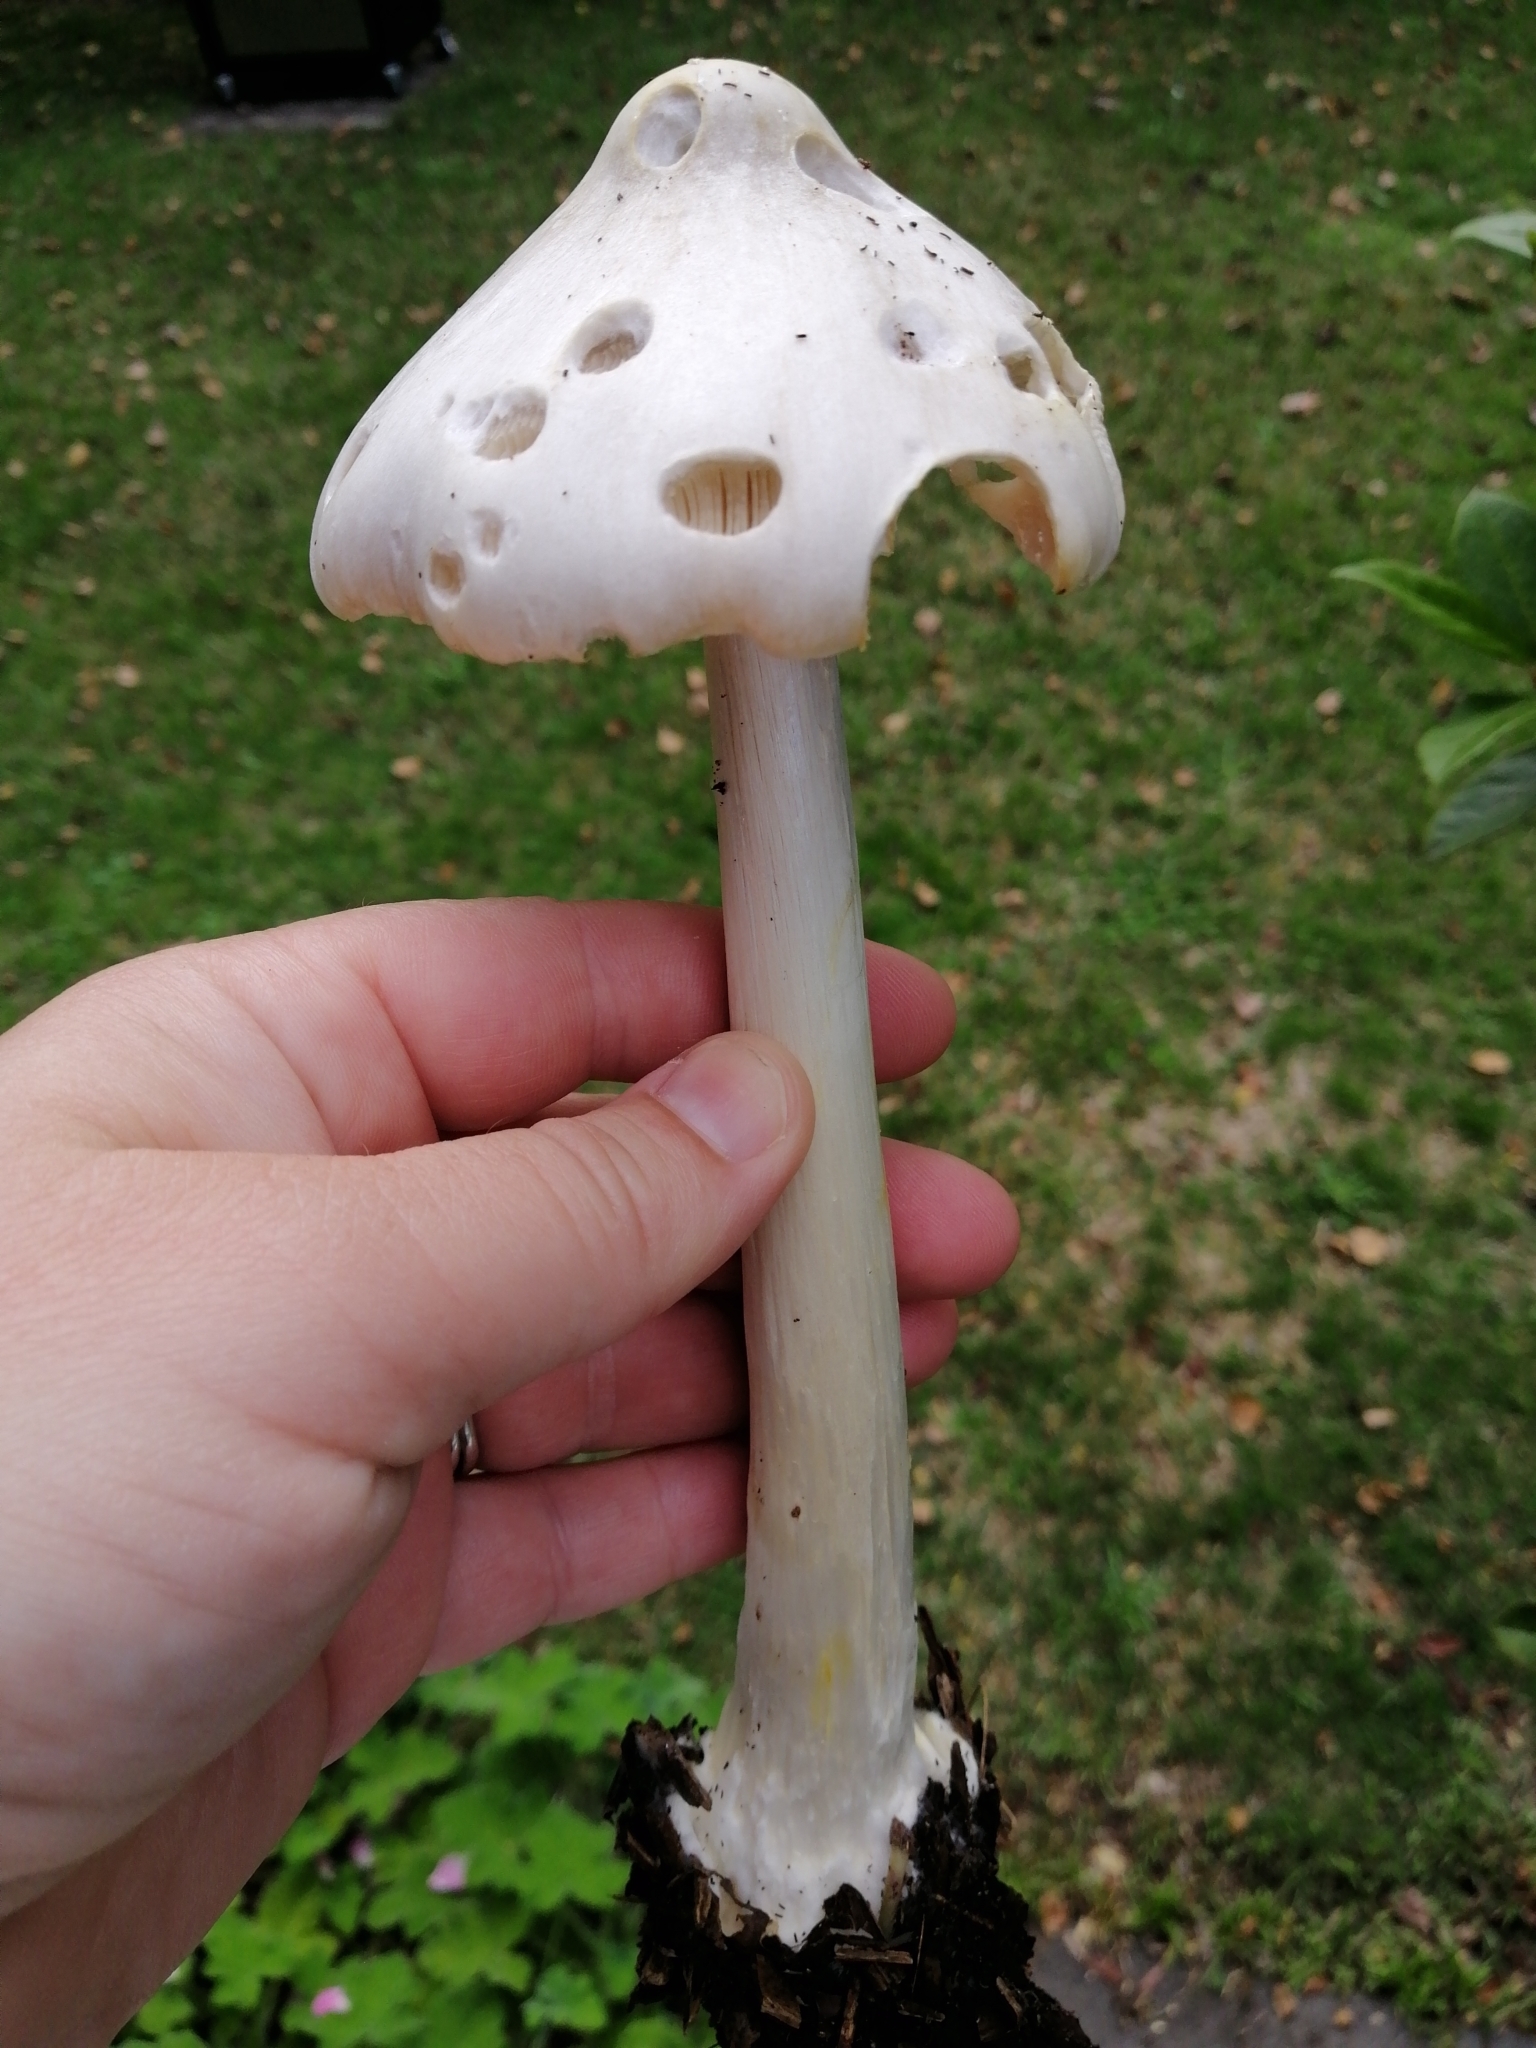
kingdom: Fungi
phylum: Basidiomycota
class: Agaricomycetes
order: Agaricales
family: Pluteaceae
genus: Volvopluteus
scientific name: Volvopluteus gloiocephalus
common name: Stubble rosegill
